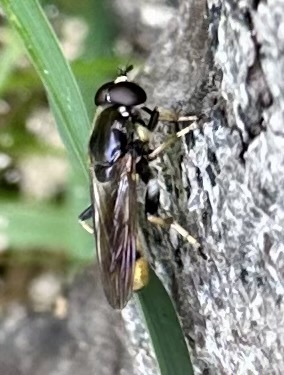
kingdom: Animalia
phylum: Arthropoda
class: Insecta
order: Diptera
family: Syrphidae
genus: Xylota
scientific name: Xylota sylvarum
